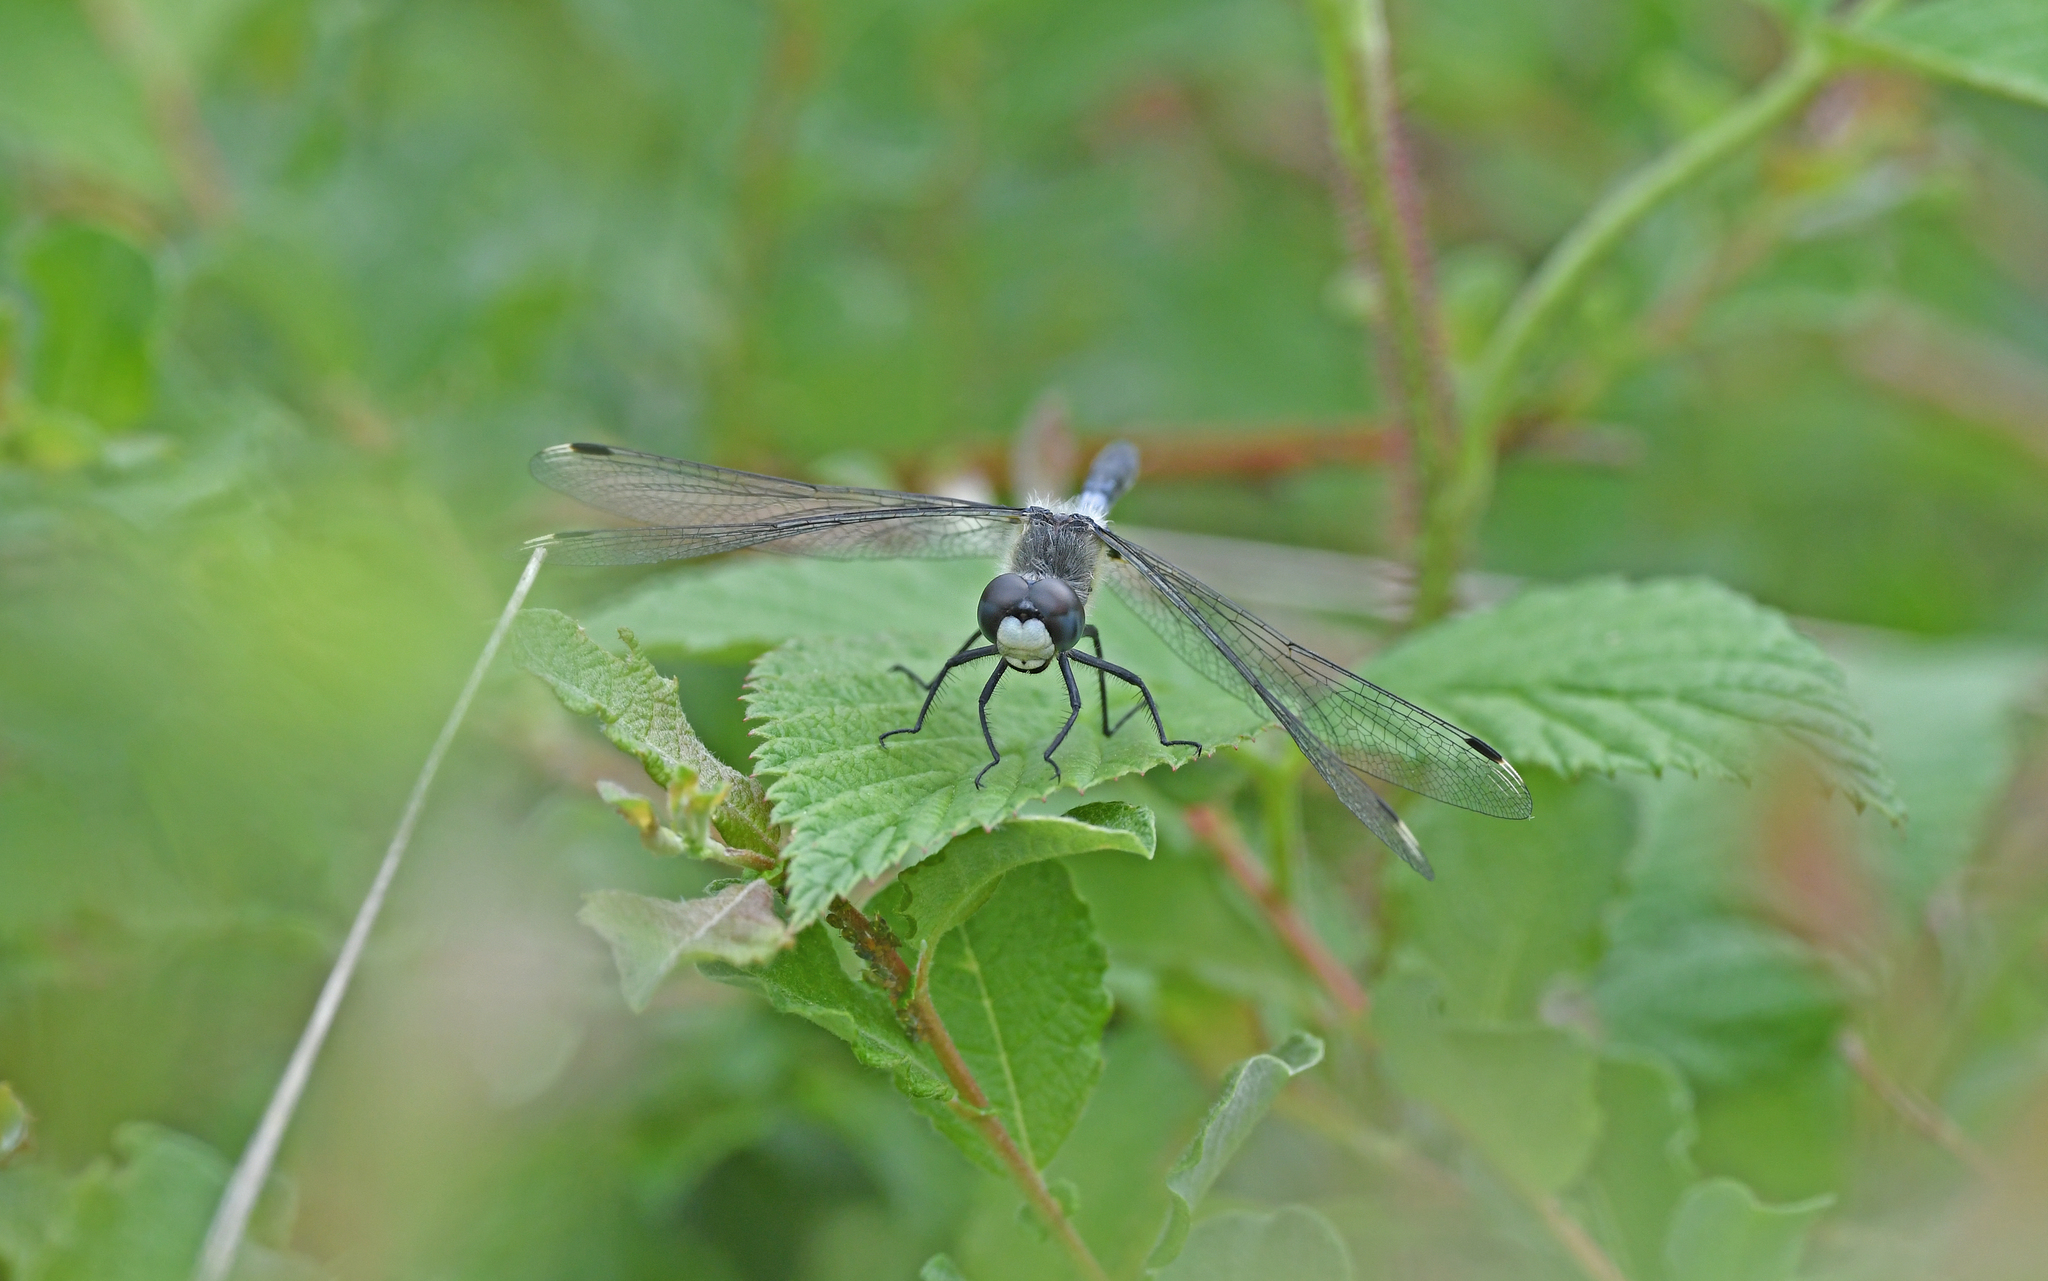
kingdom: Animalia
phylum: Arthropoda
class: Insecta
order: Odonata
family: Libellulidae
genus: Leucorrhinia
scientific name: Leucorrhinia albifrons
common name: Dark whiteface
